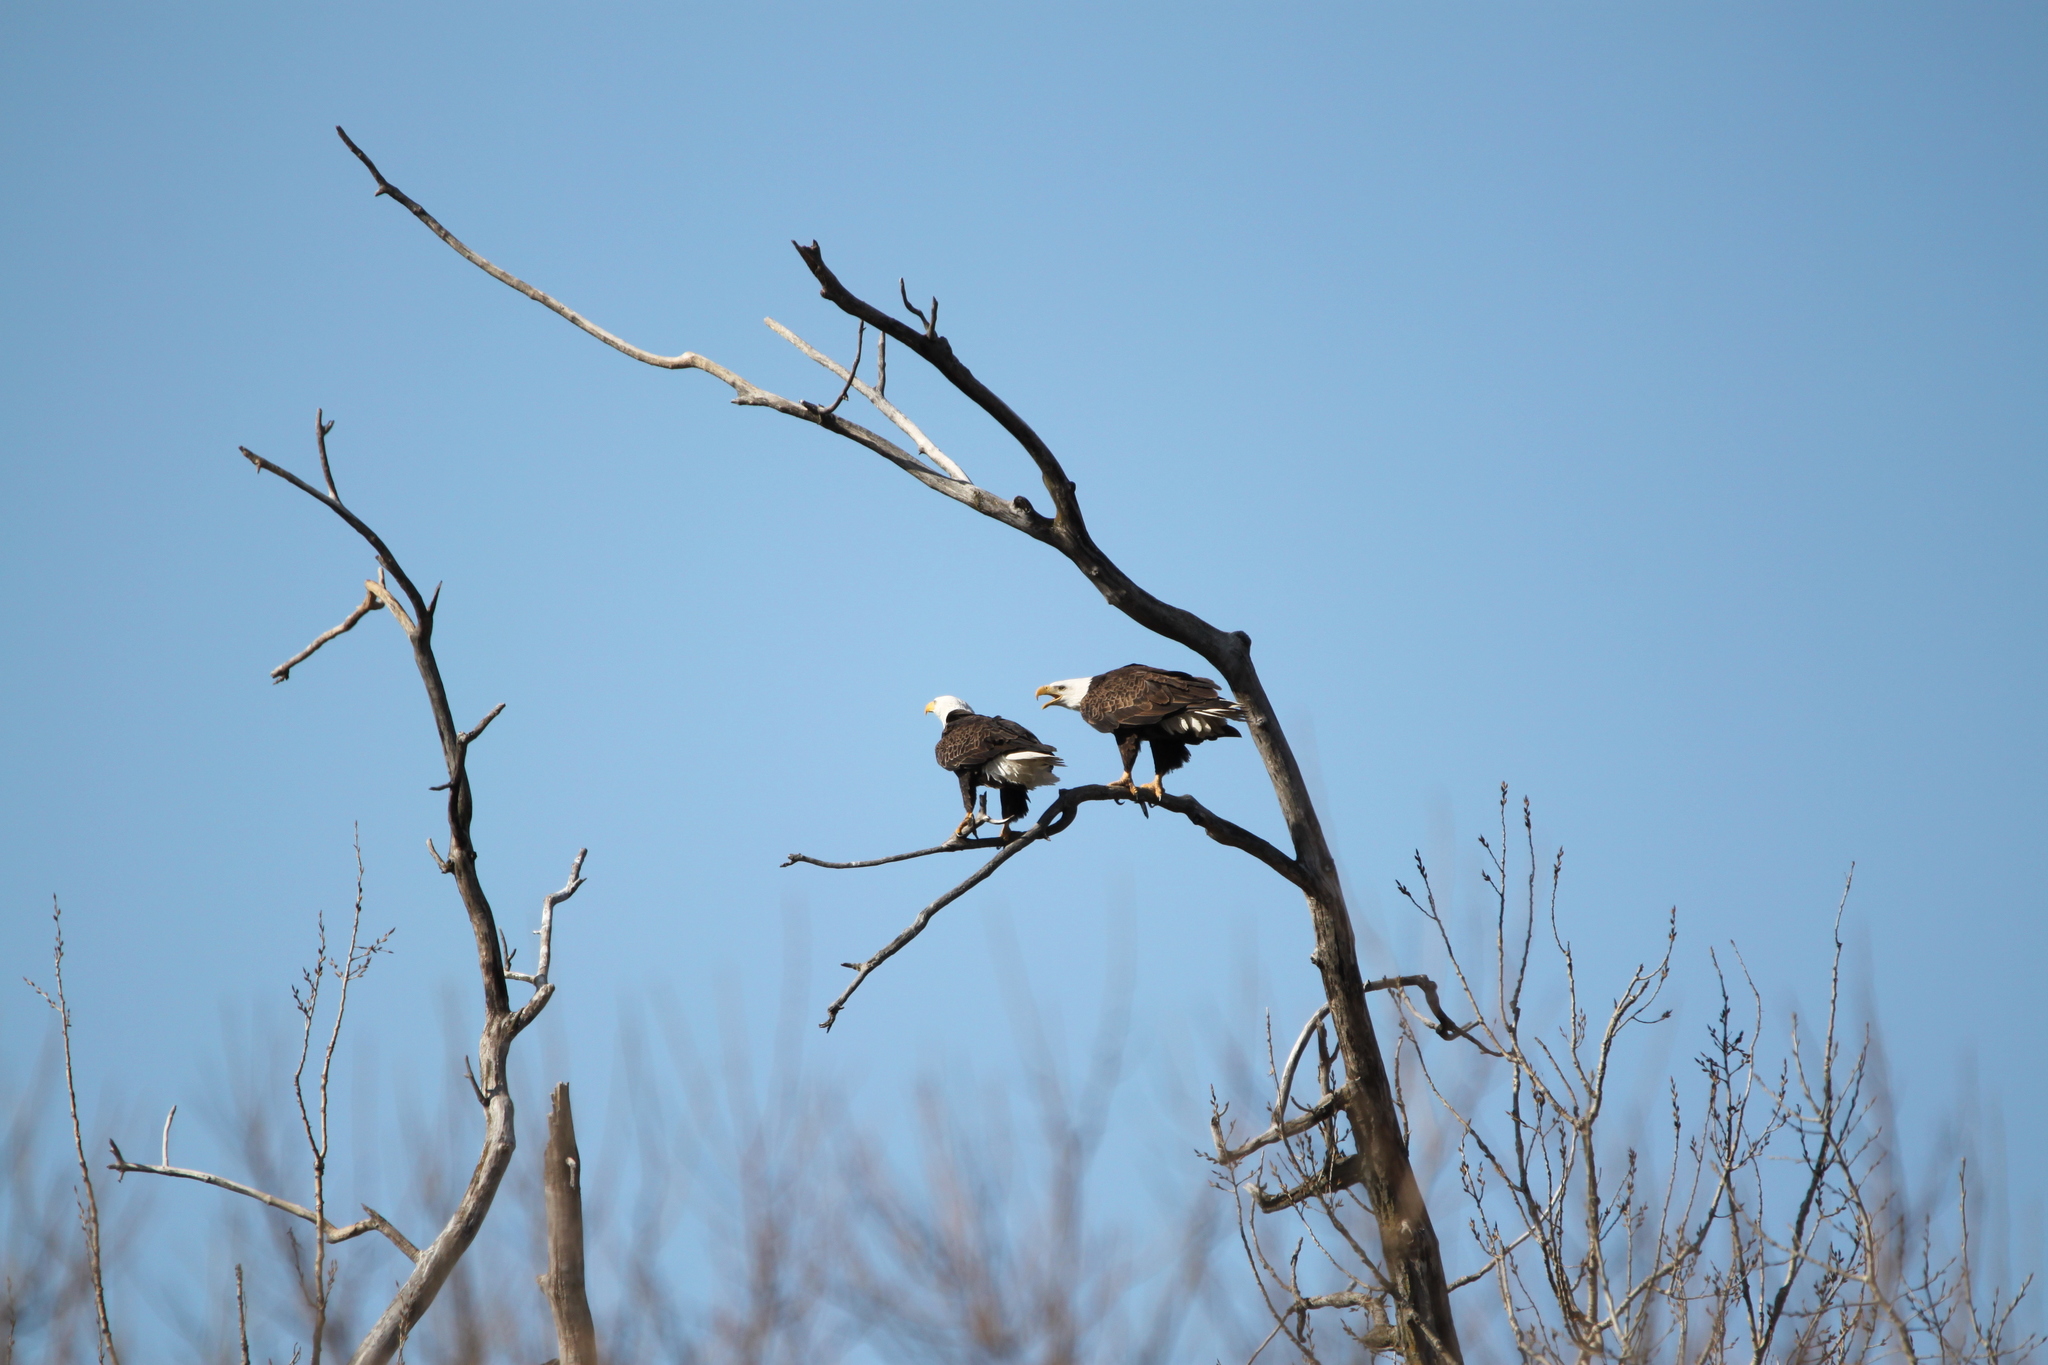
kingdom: Animalia
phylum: Chordata
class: Aves
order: Accipitriformes
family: Accipitridae
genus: Haliaeetus
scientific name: Haliaeetus leucocephalus
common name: Bald eagle
